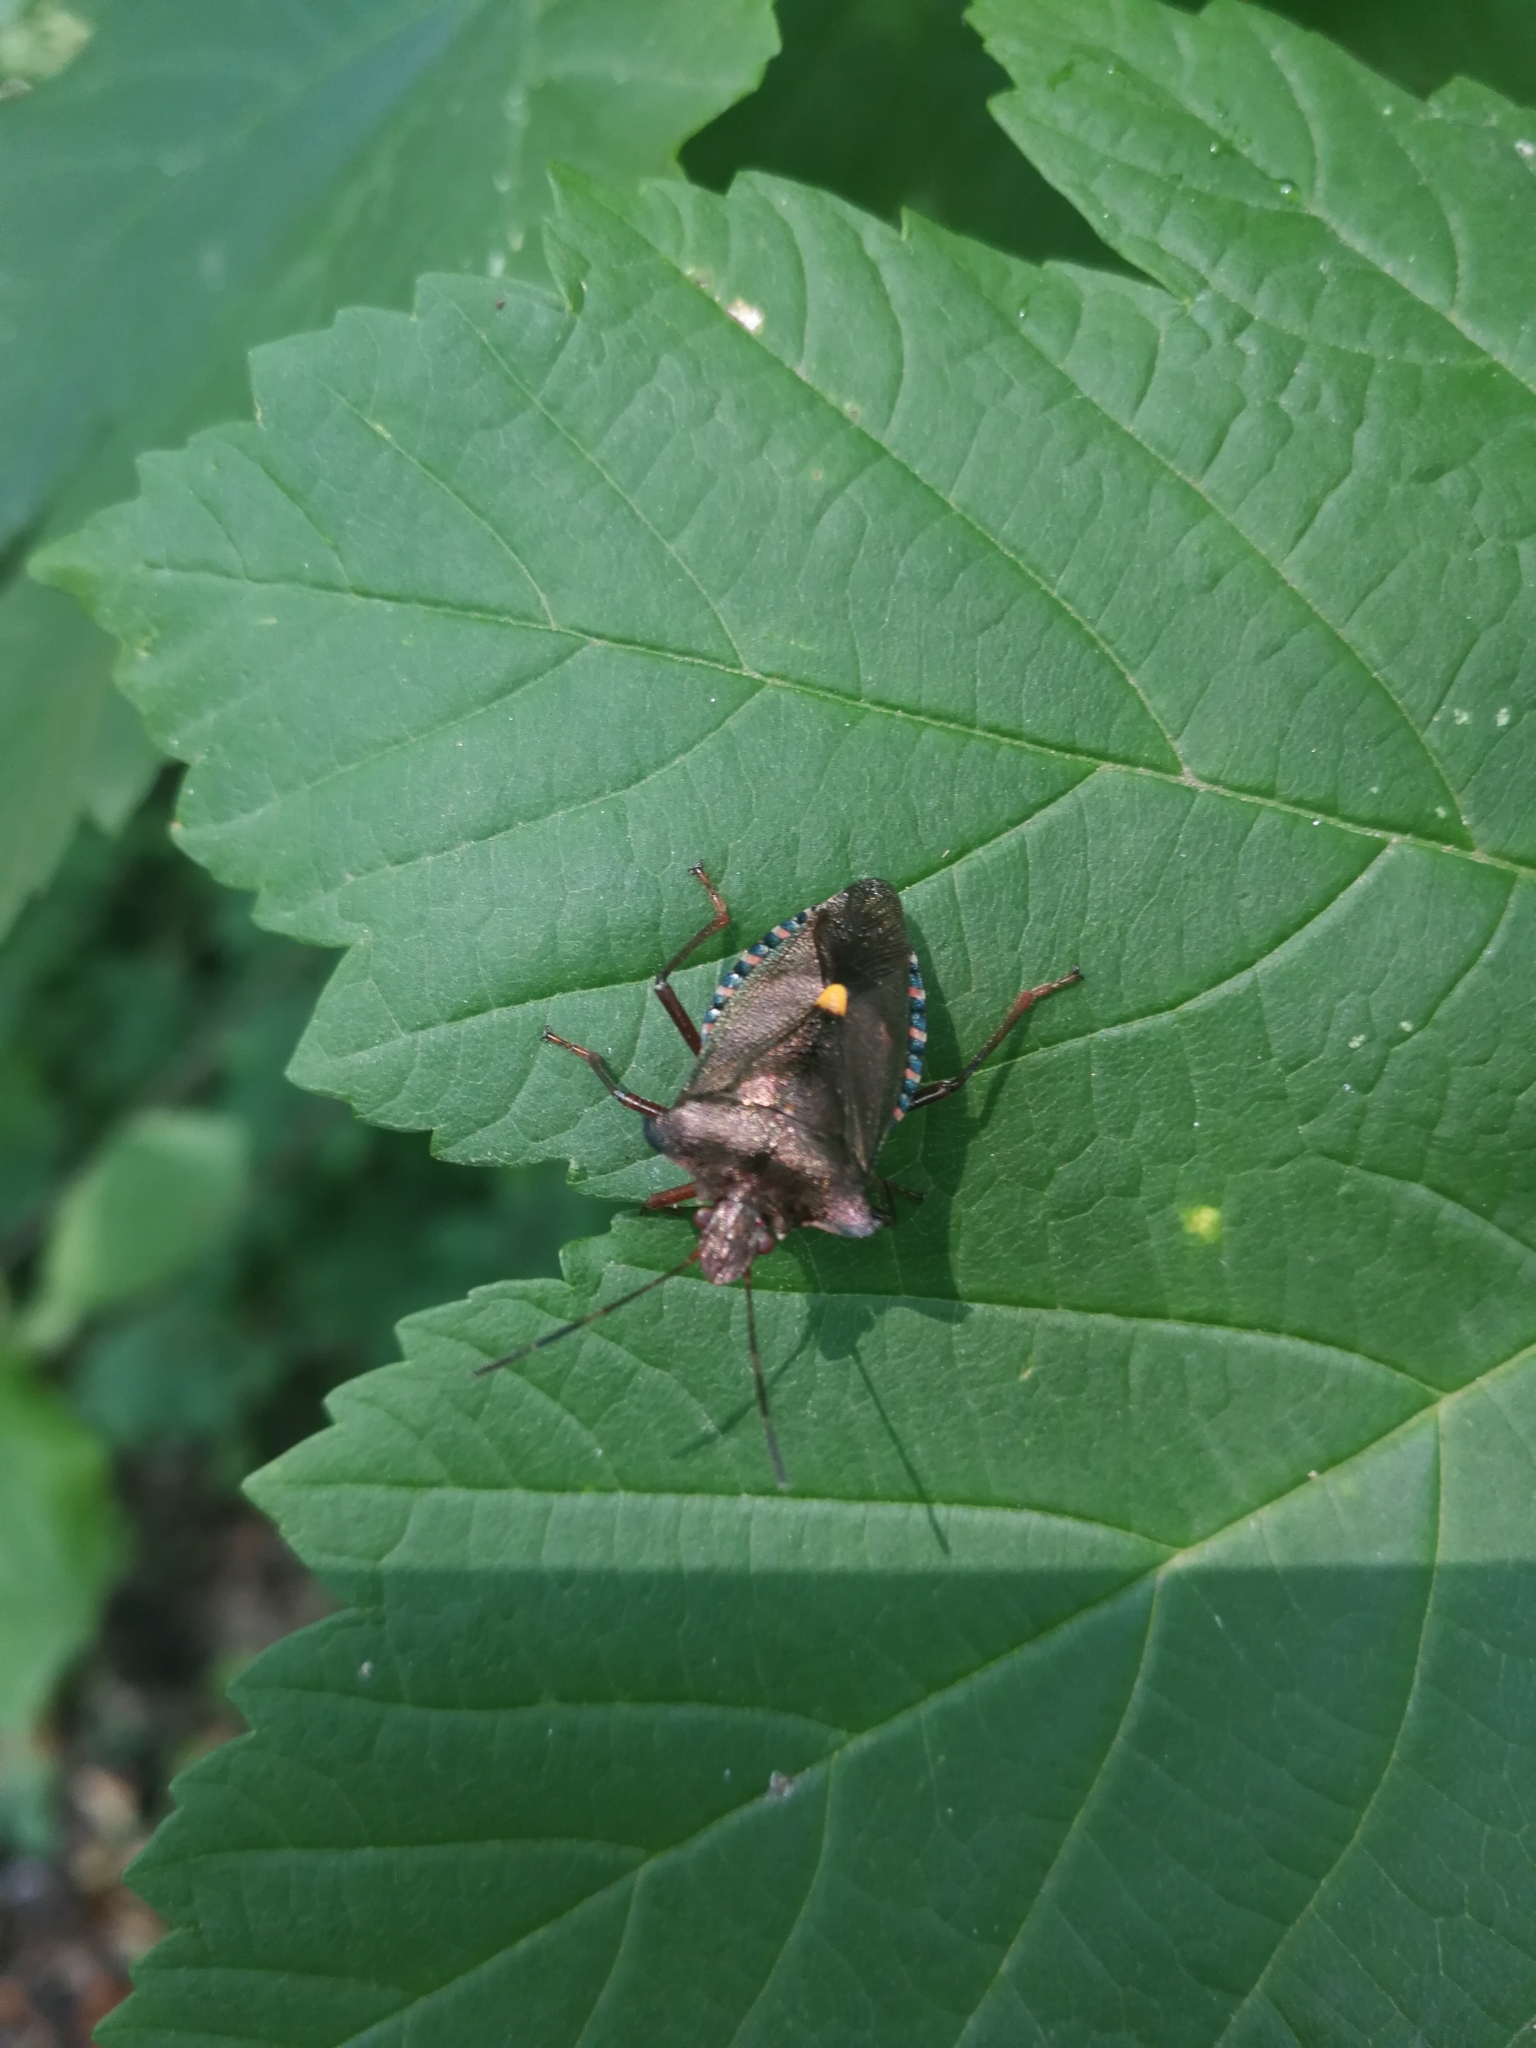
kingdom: Animalia
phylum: Arthropoda
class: Insecta
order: Hemiptera
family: Pentatomidae
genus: Pentatoma
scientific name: Pentatoma rufipes
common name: Forest bug
